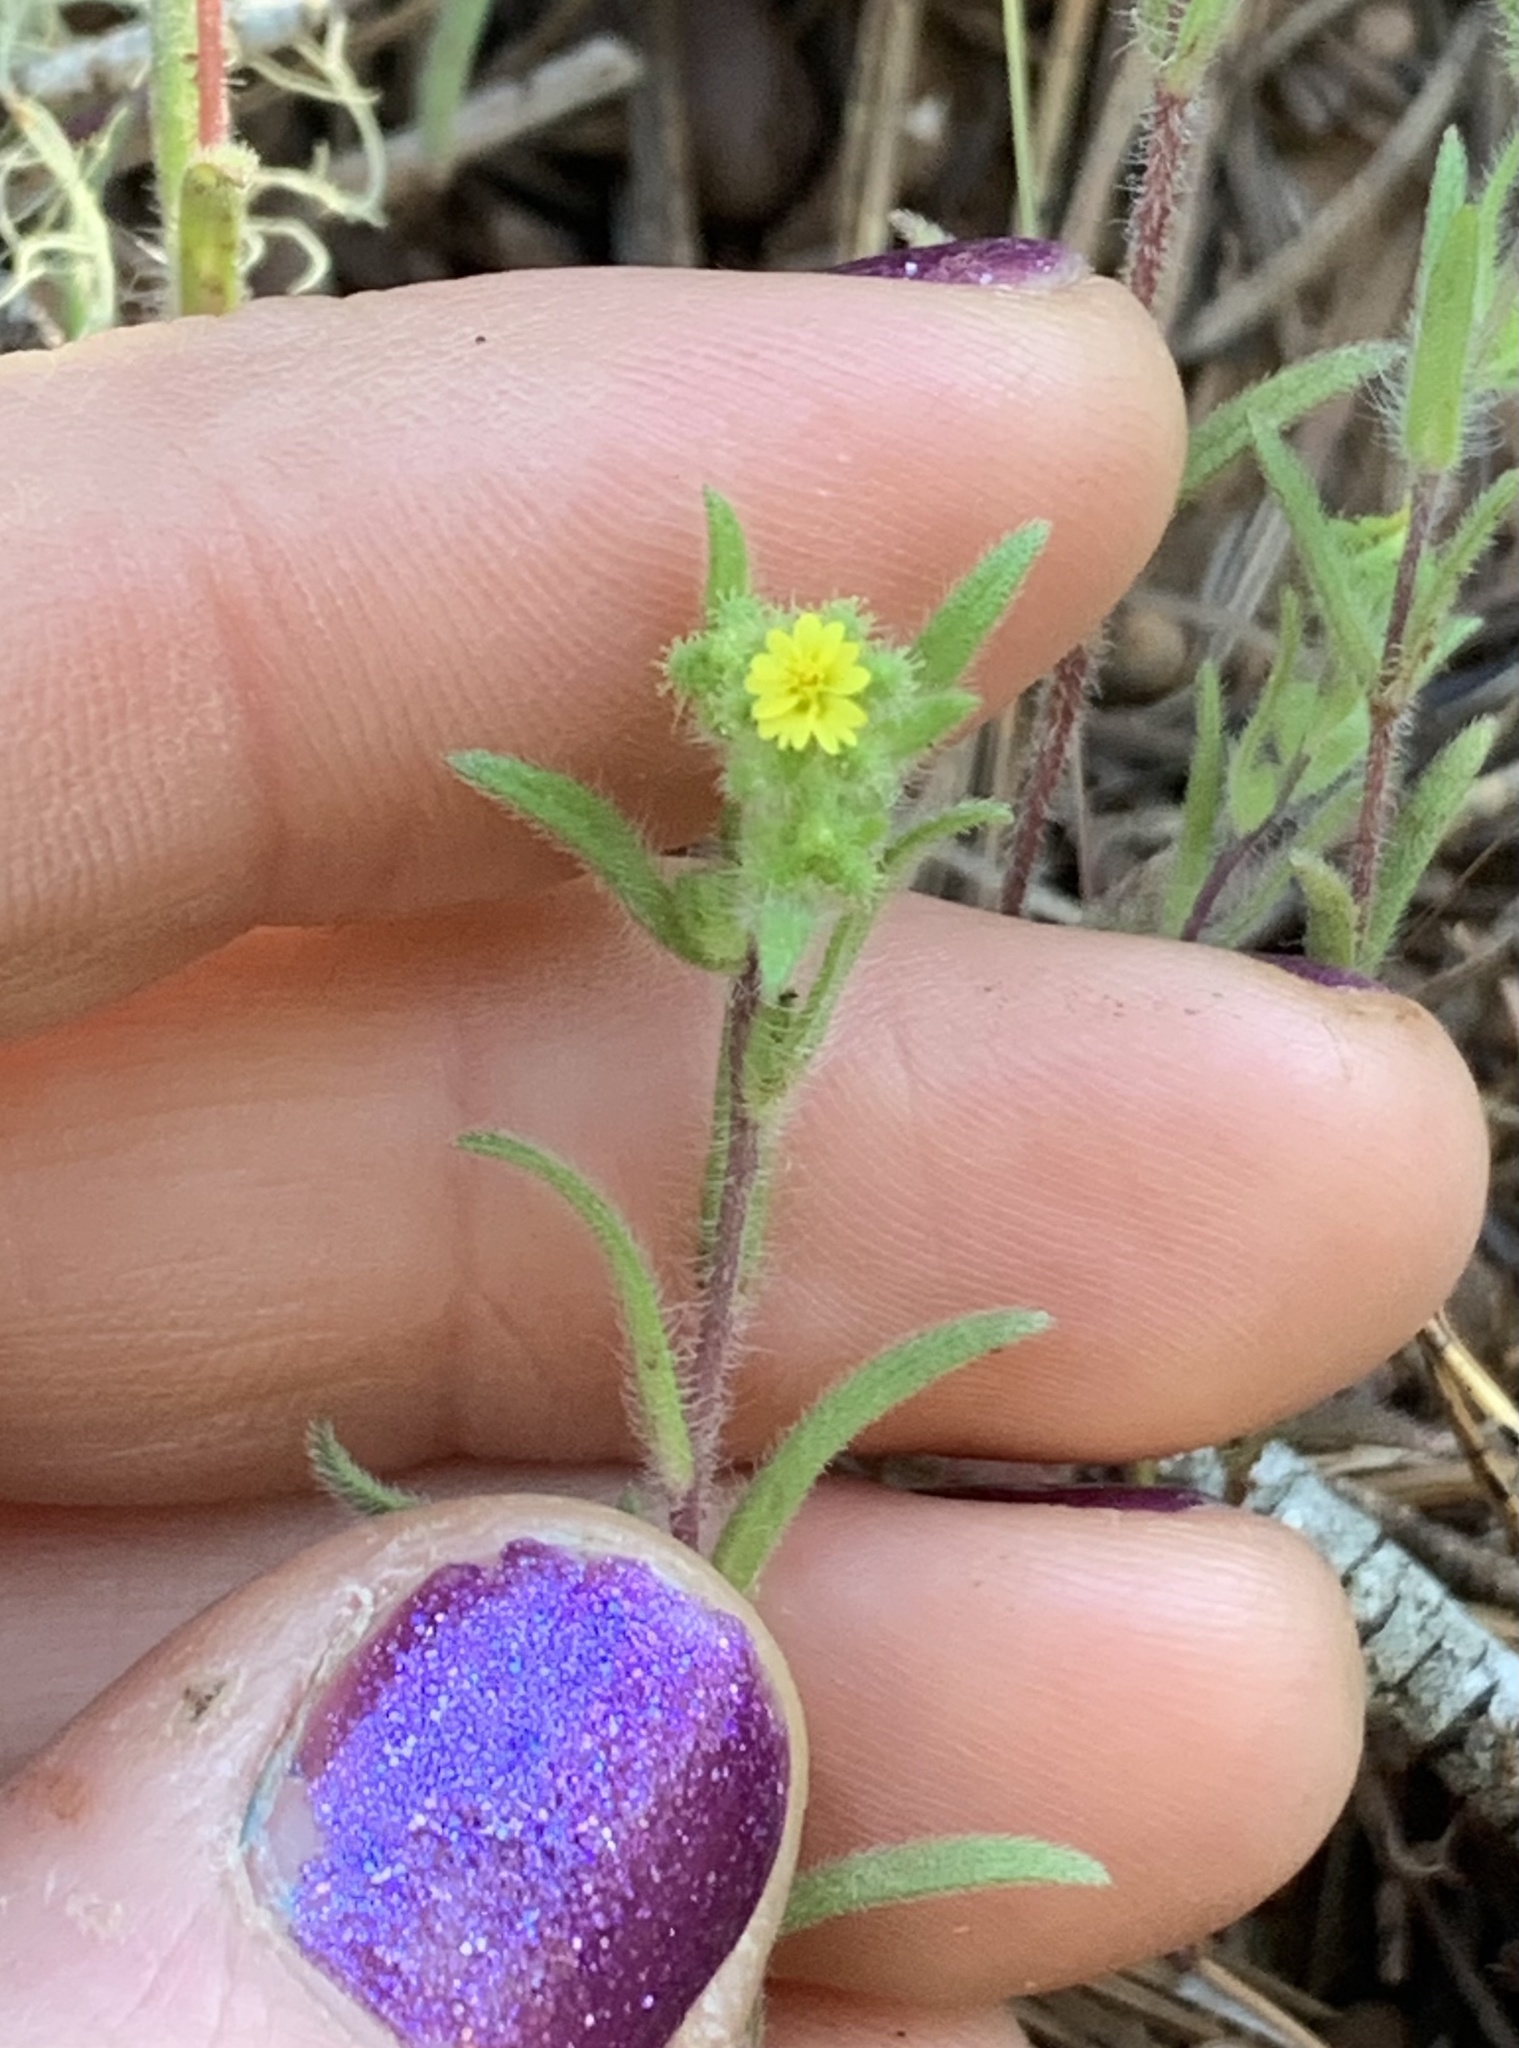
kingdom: Plantae
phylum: Tracheophyta
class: Magnoliopsida
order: Asterales
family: Asteraceae
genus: Madia
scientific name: Madia exigua
